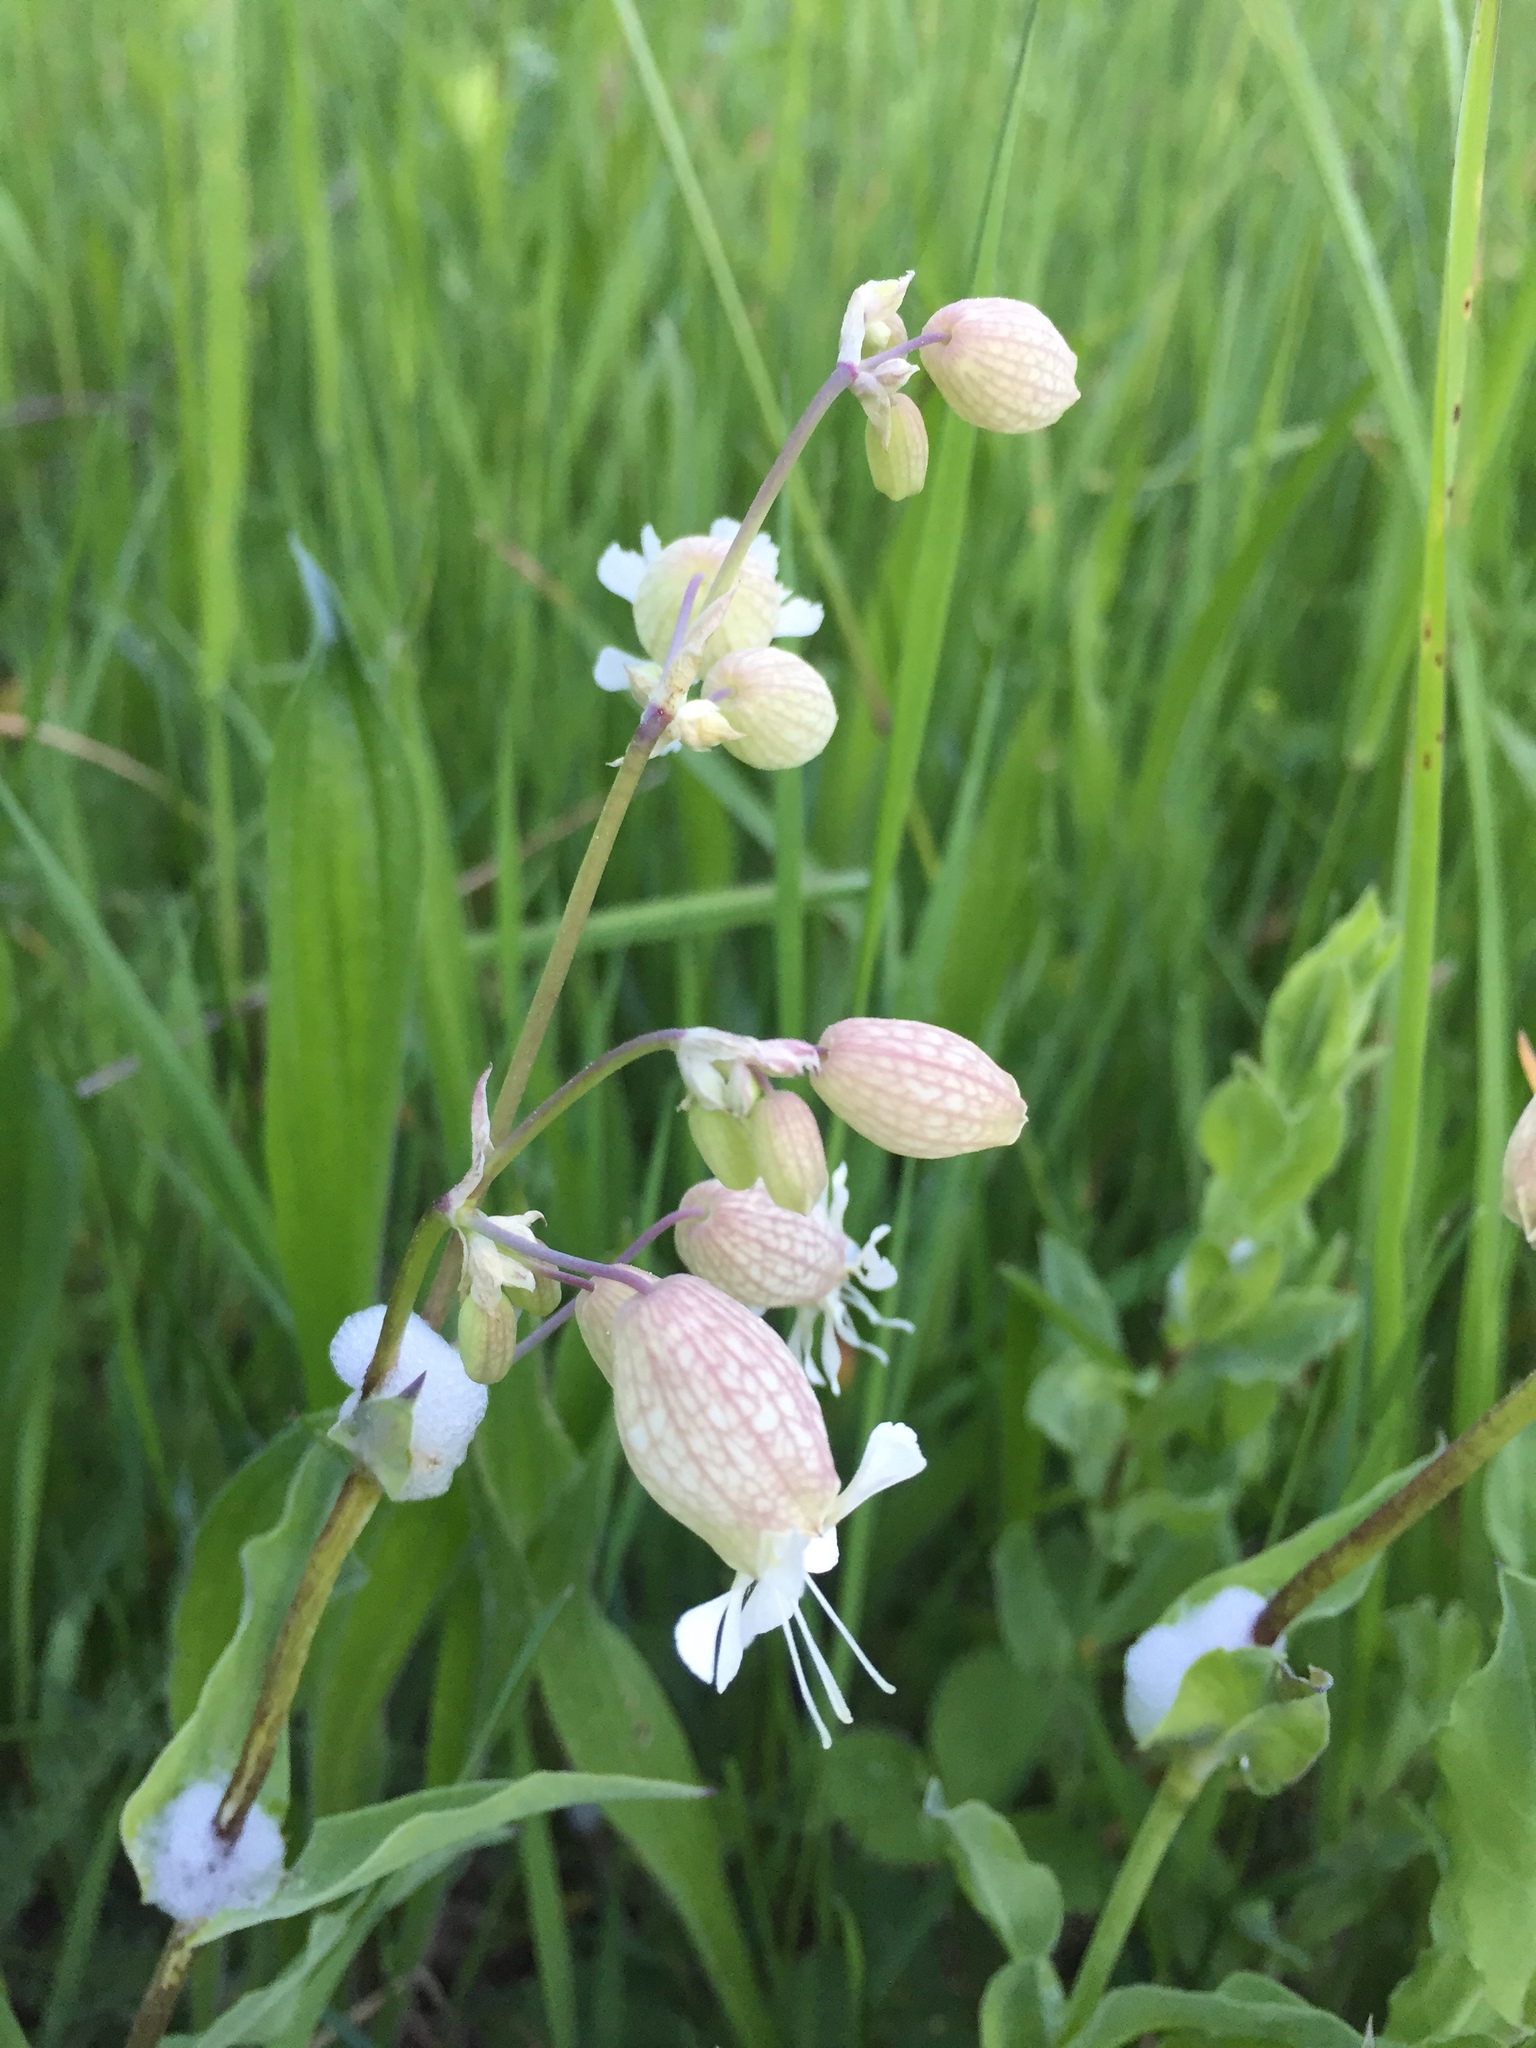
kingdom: Plantae
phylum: Tracheophyta
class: Magnoliopsida
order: Caryophyllales
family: Caryophyllaceae
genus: Silene
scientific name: Silene vulgaris
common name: Bladder campion
